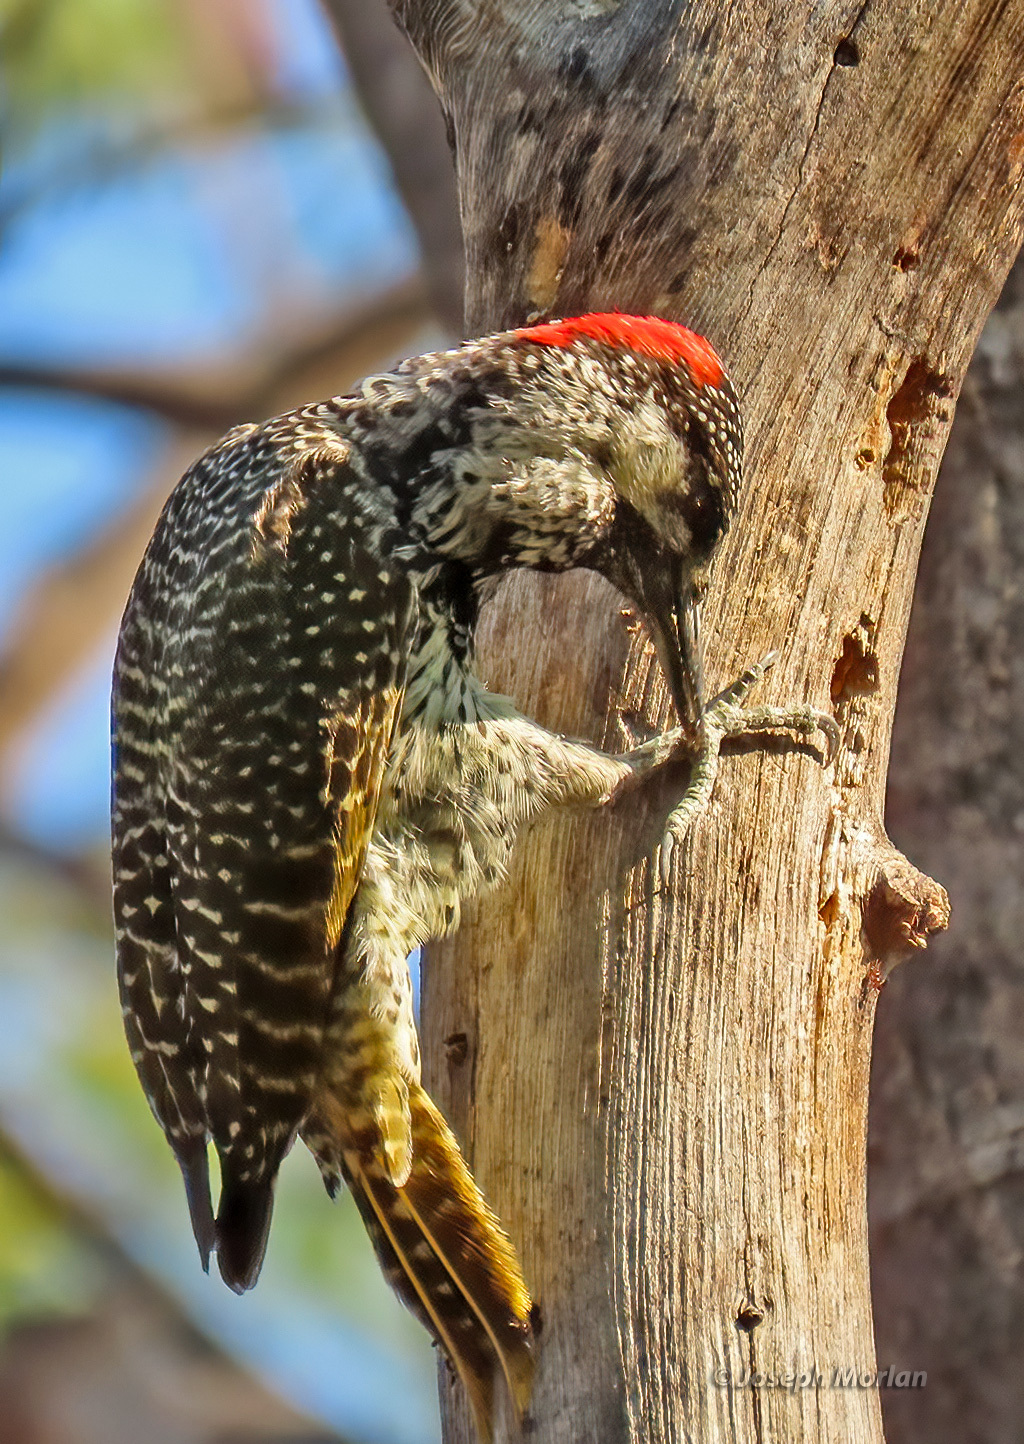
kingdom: Animalia
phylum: Chordata
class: Aves
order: Piciformes
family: Picidae
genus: Campethera
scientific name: Campethera abingoni
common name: Golden-tailed woodpecker
